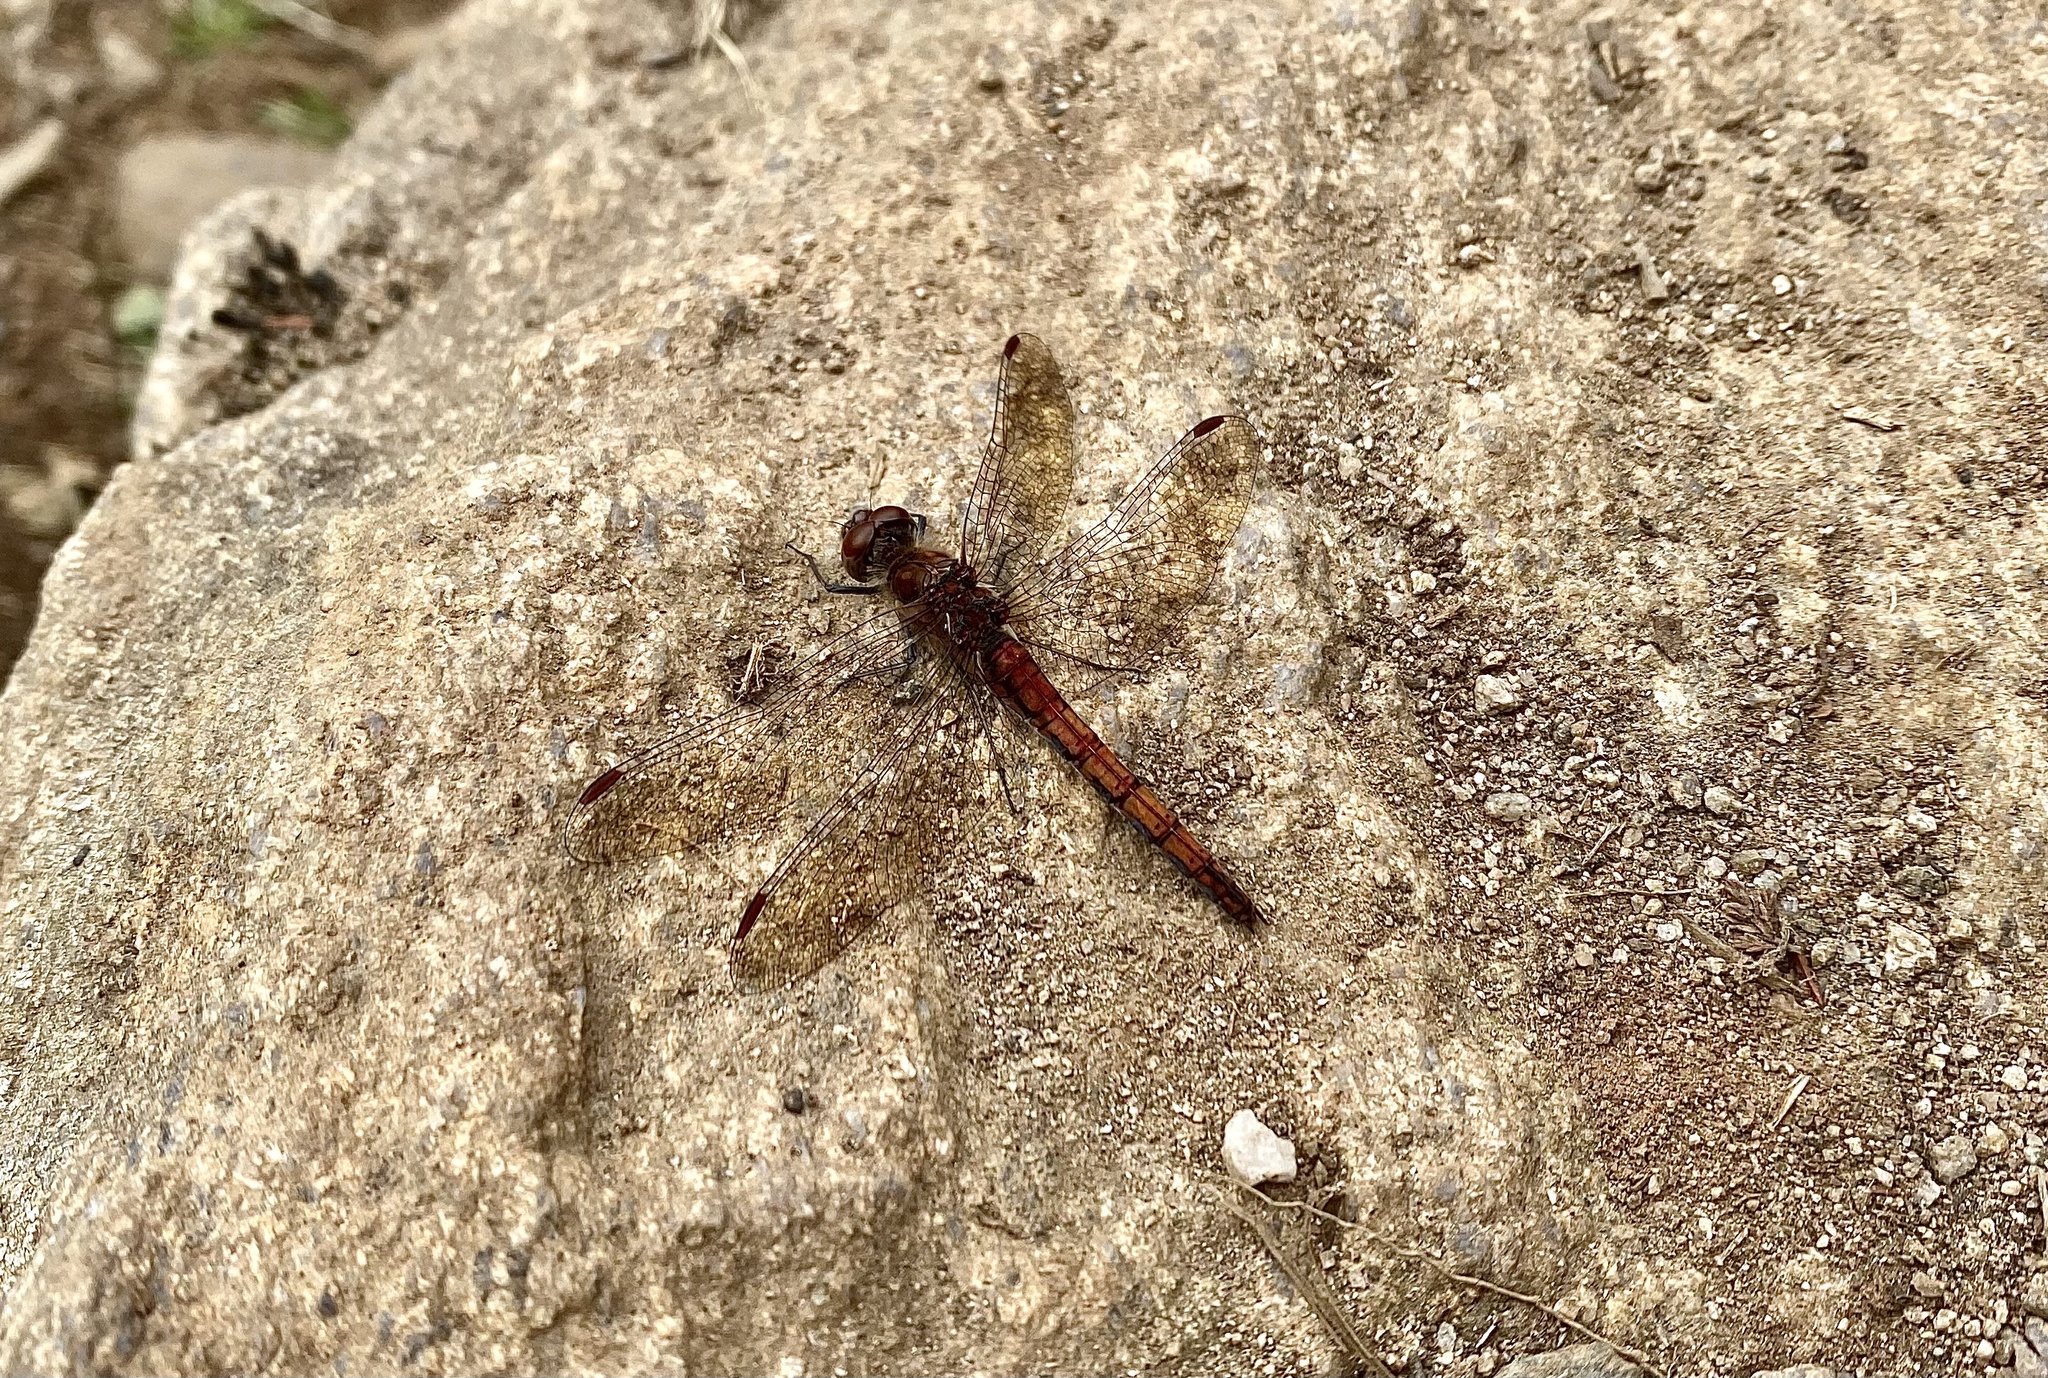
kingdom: Animalia
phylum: Arthropoda
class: Insecta
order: Odonata
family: Libellulidae
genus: Sympetrum
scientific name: Sympetrum striolatum
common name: Common darter
